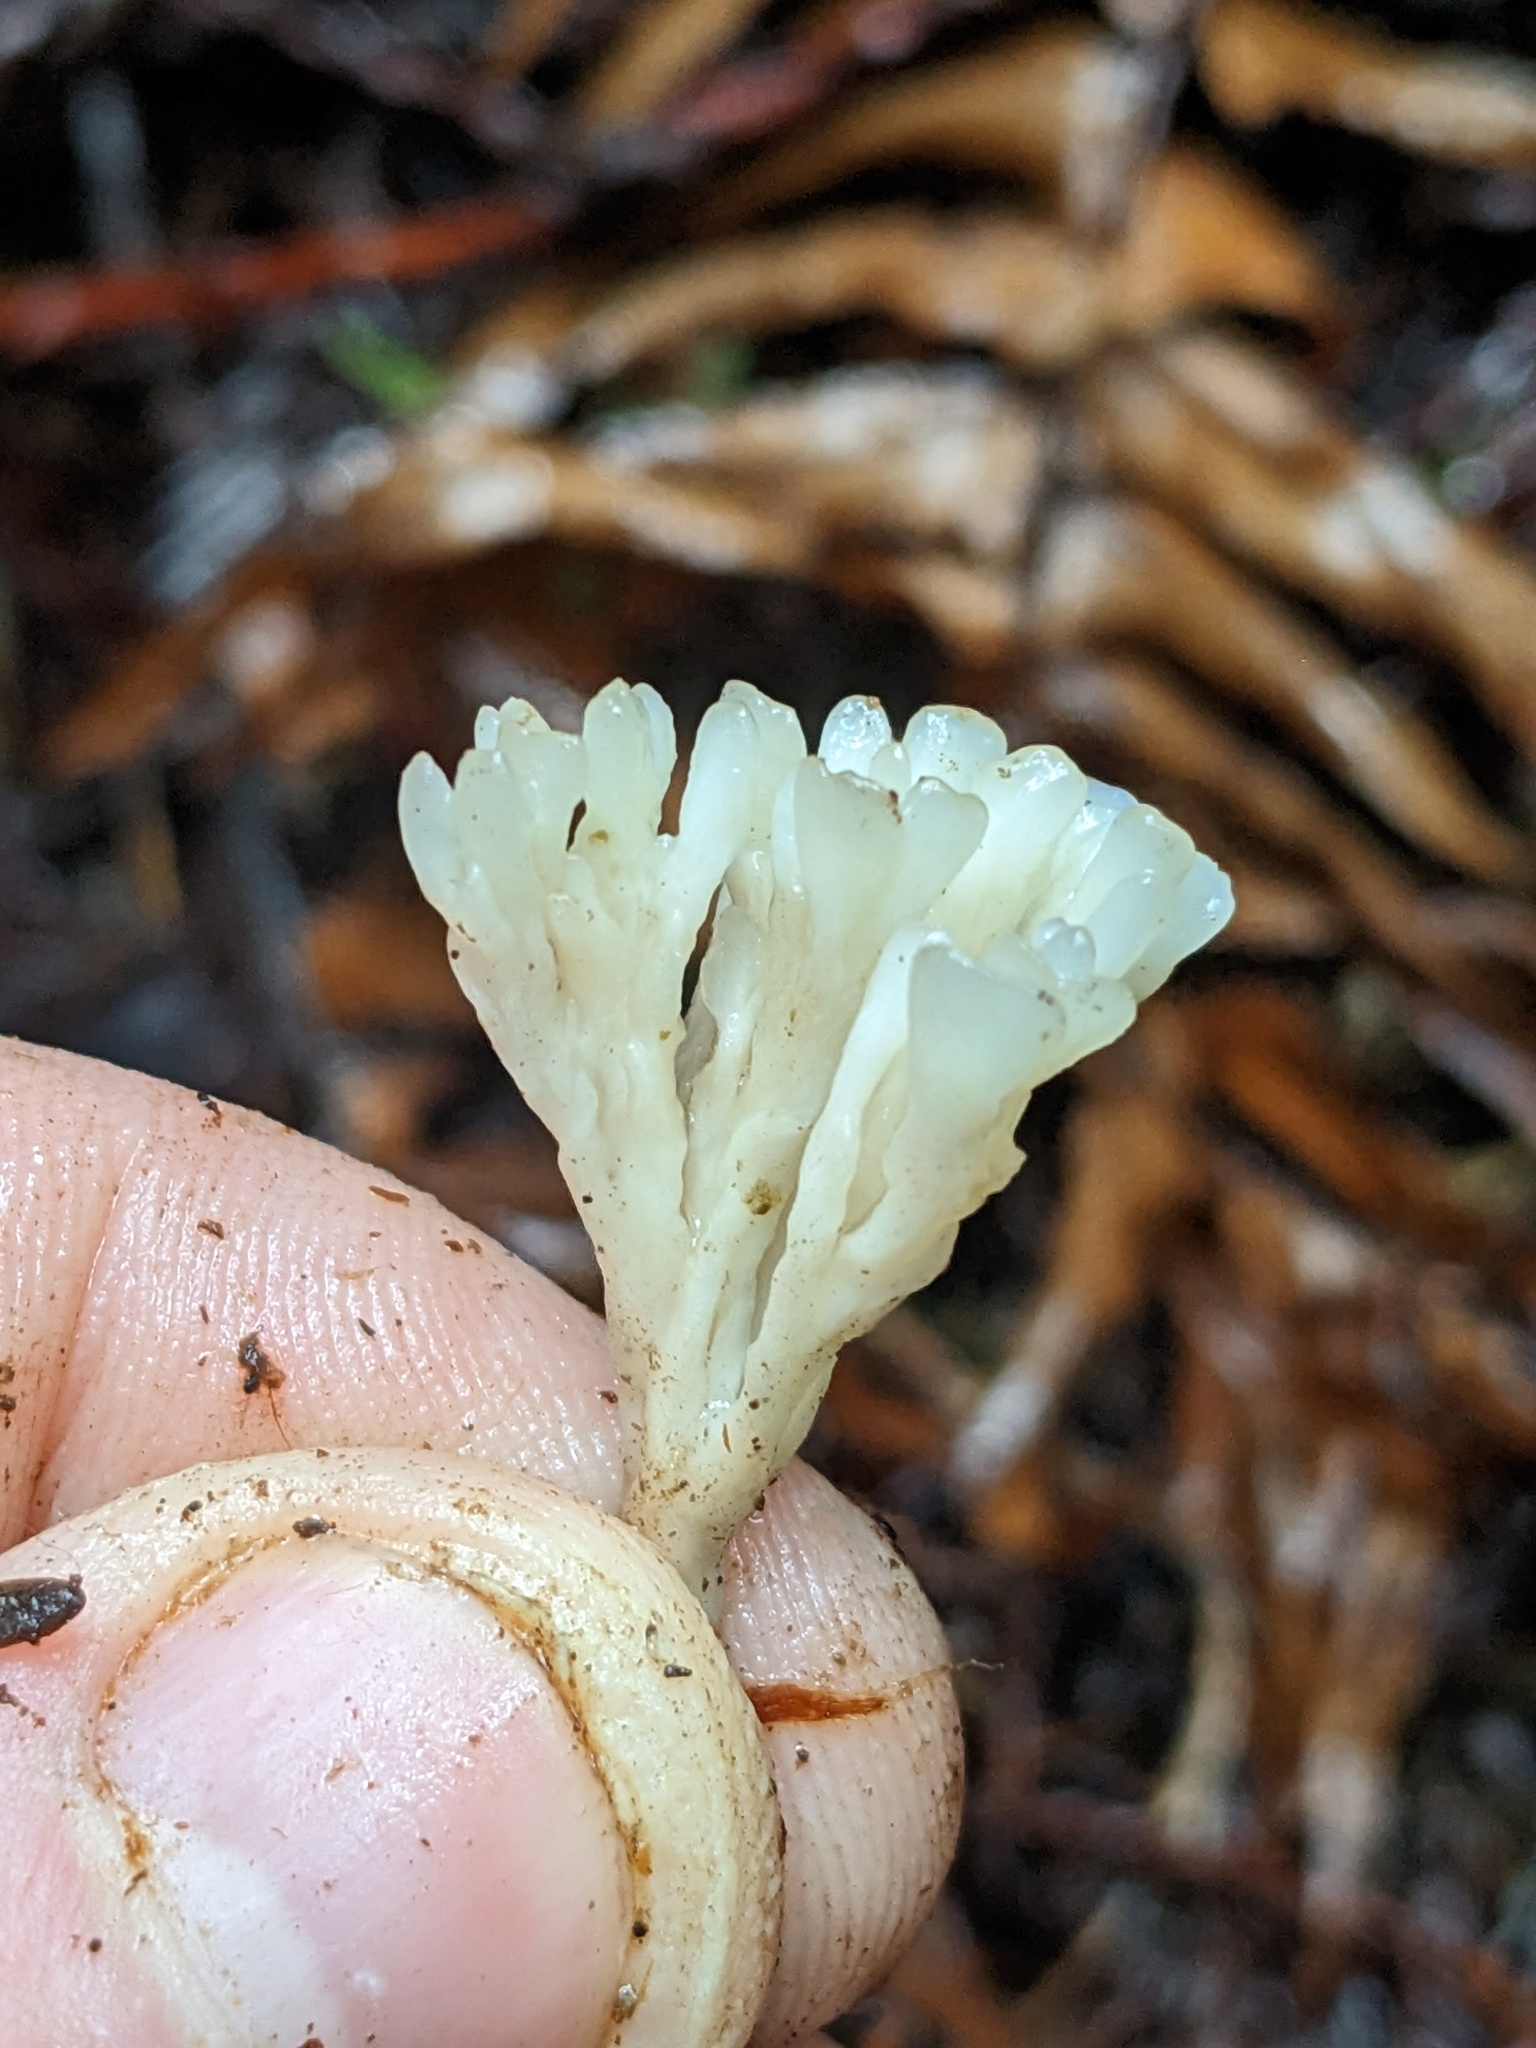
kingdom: Fungi
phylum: Basidiomycota
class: Agaricomycetes
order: Tremellodendropsidales
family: Tremellodendropsidaceae
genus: Tremellodendropsis
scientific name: Tremellodendropsis tuberosa
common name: Ashen coral
